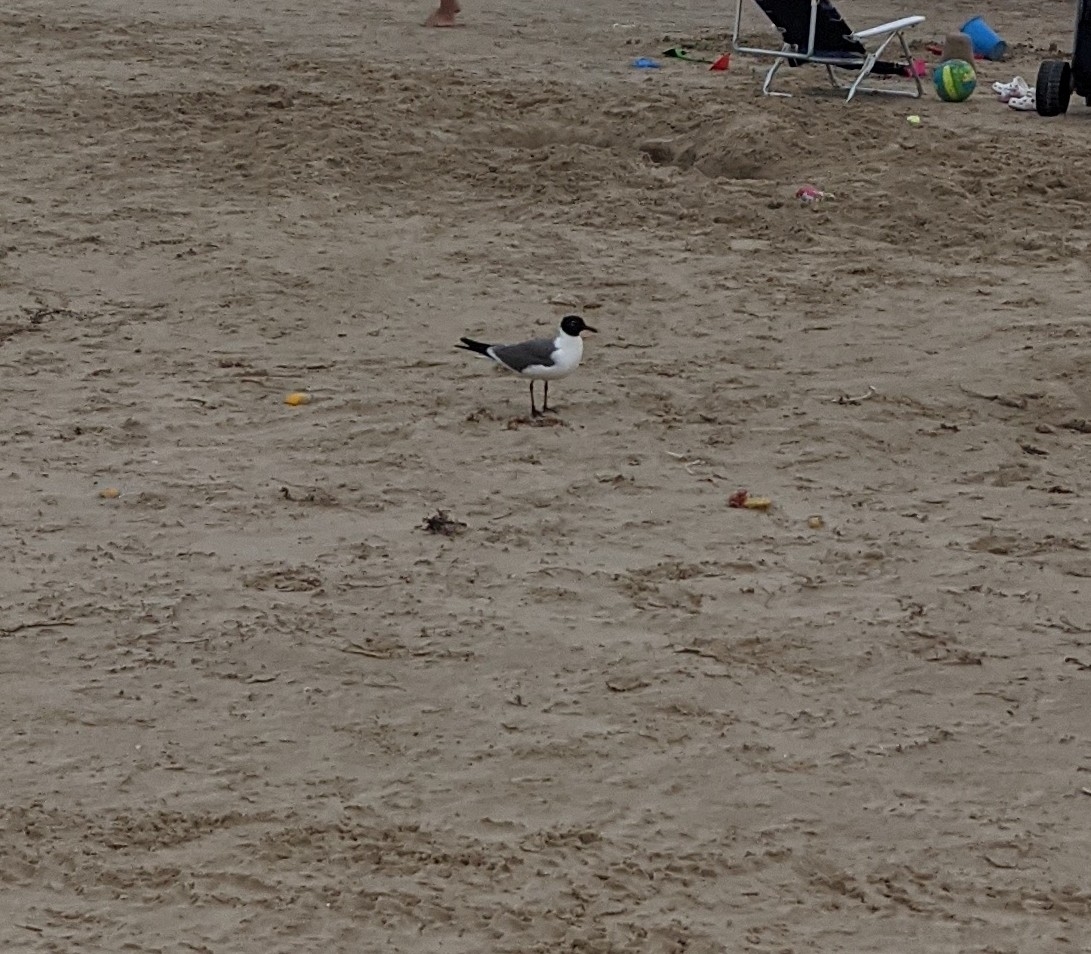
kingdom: Animalia
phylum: Chordata
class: Aves
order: Charadriiformes
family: Laridae
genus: Leucophaeus
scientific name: Leucophaeus atricilla
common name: Laughing gull
